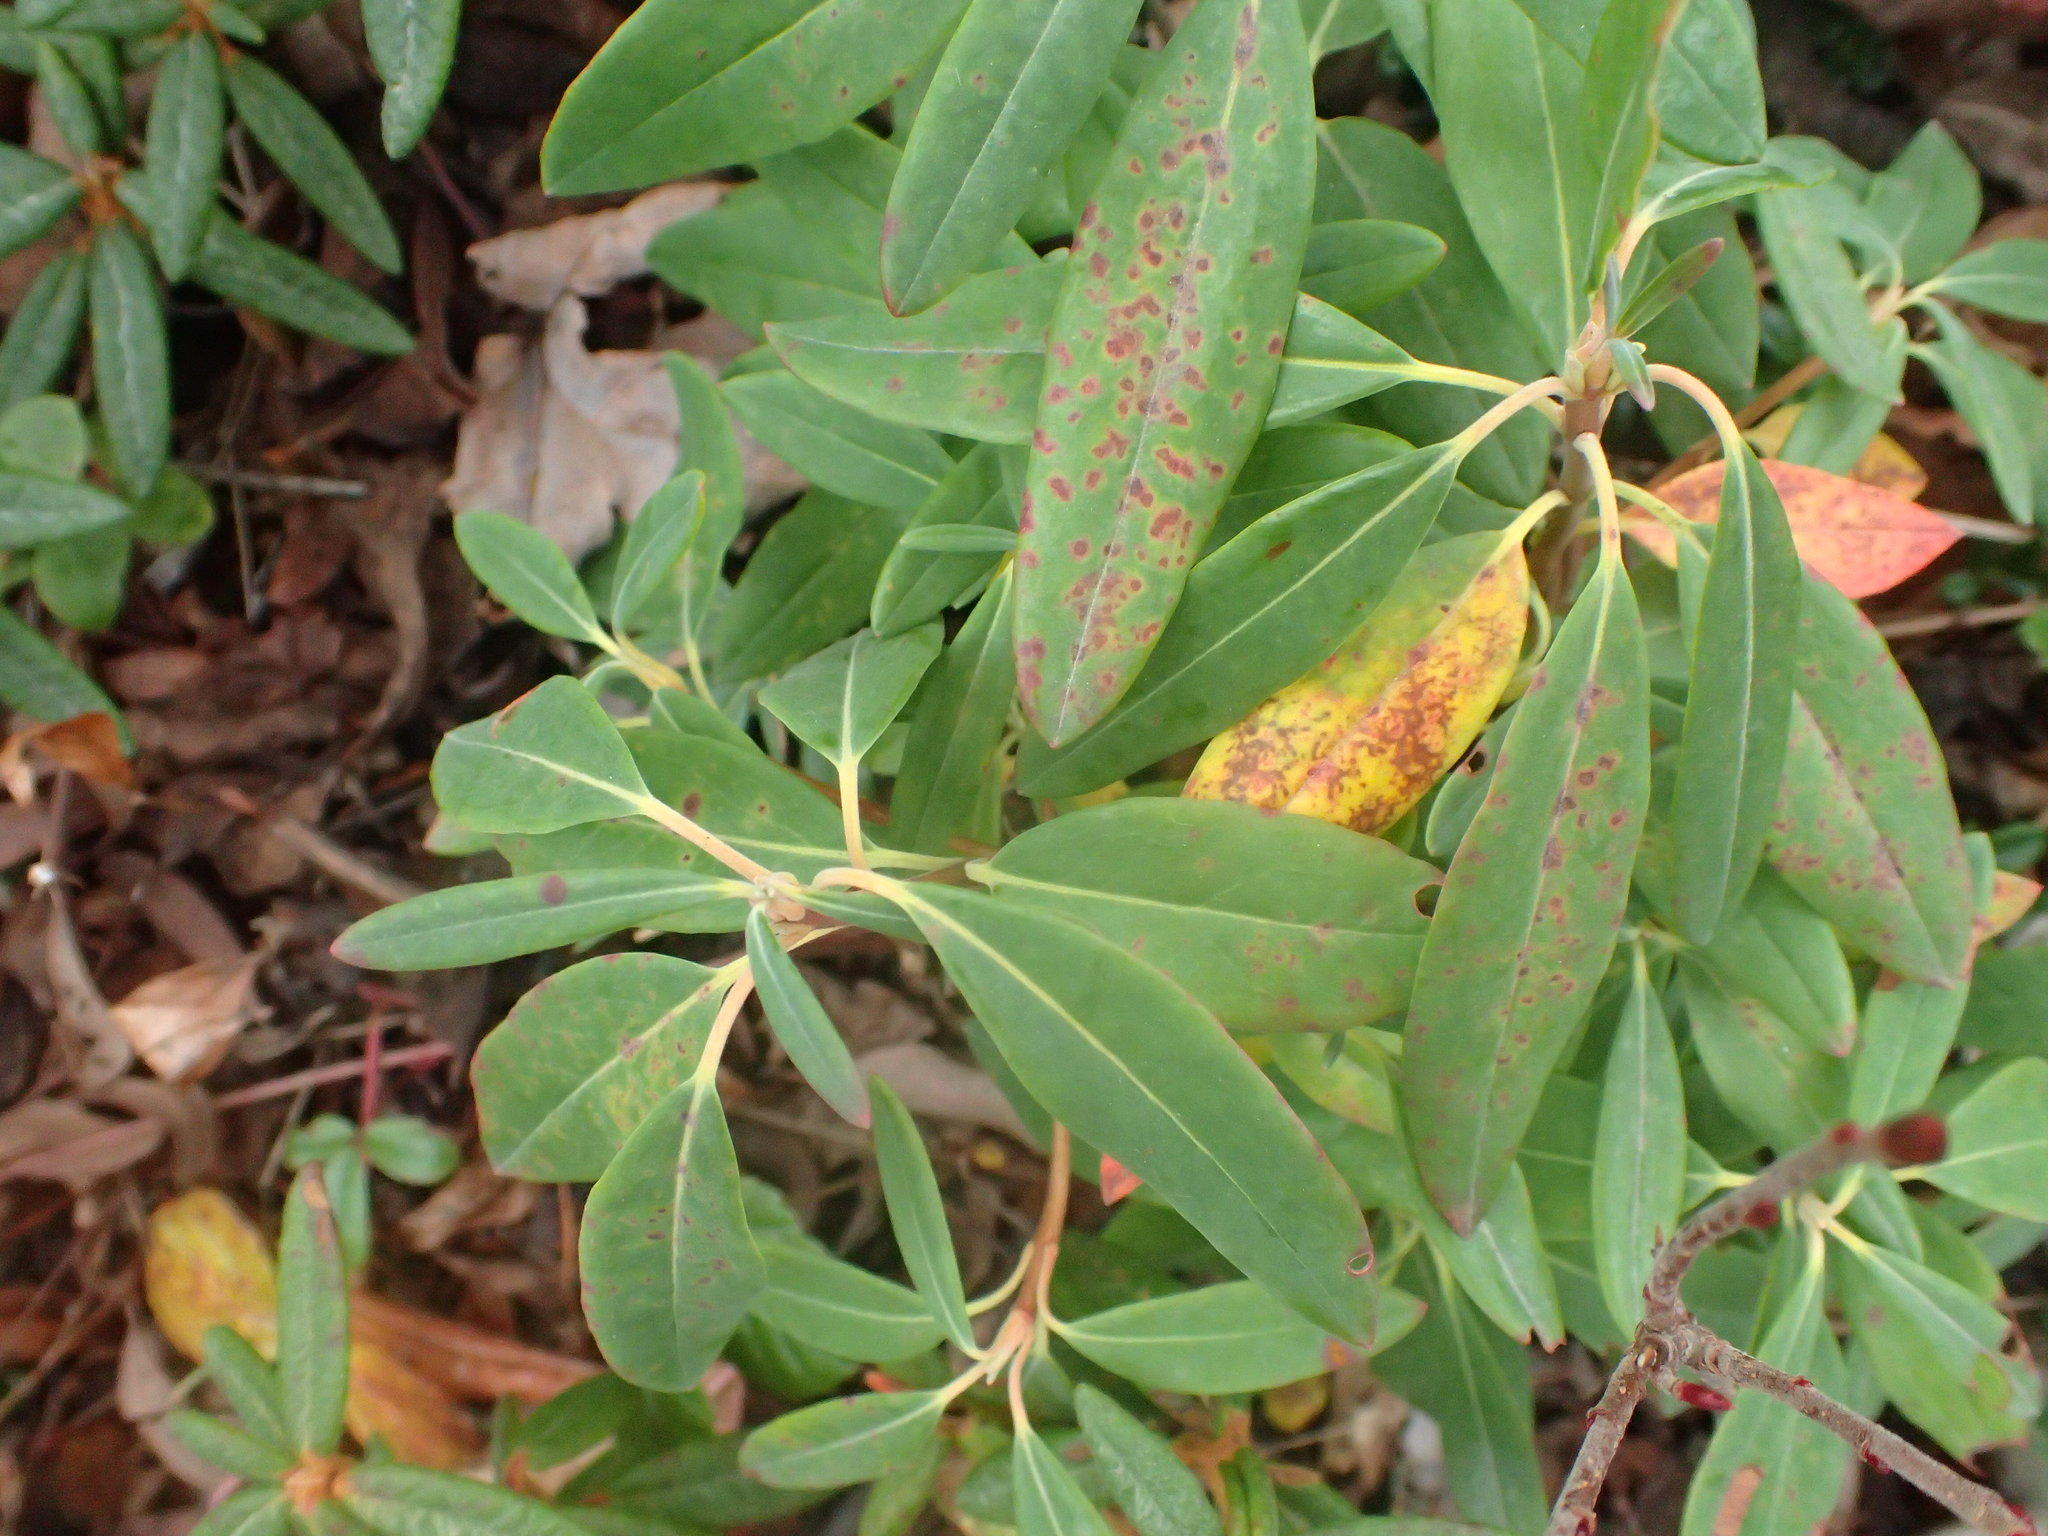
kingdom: Plantae
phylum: Tracheophyta
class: Magnoliopsida
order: Ericales
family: Ericaceae
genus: Kalmia
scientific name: Kalmia angustifolia
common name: Sheep-laurel
